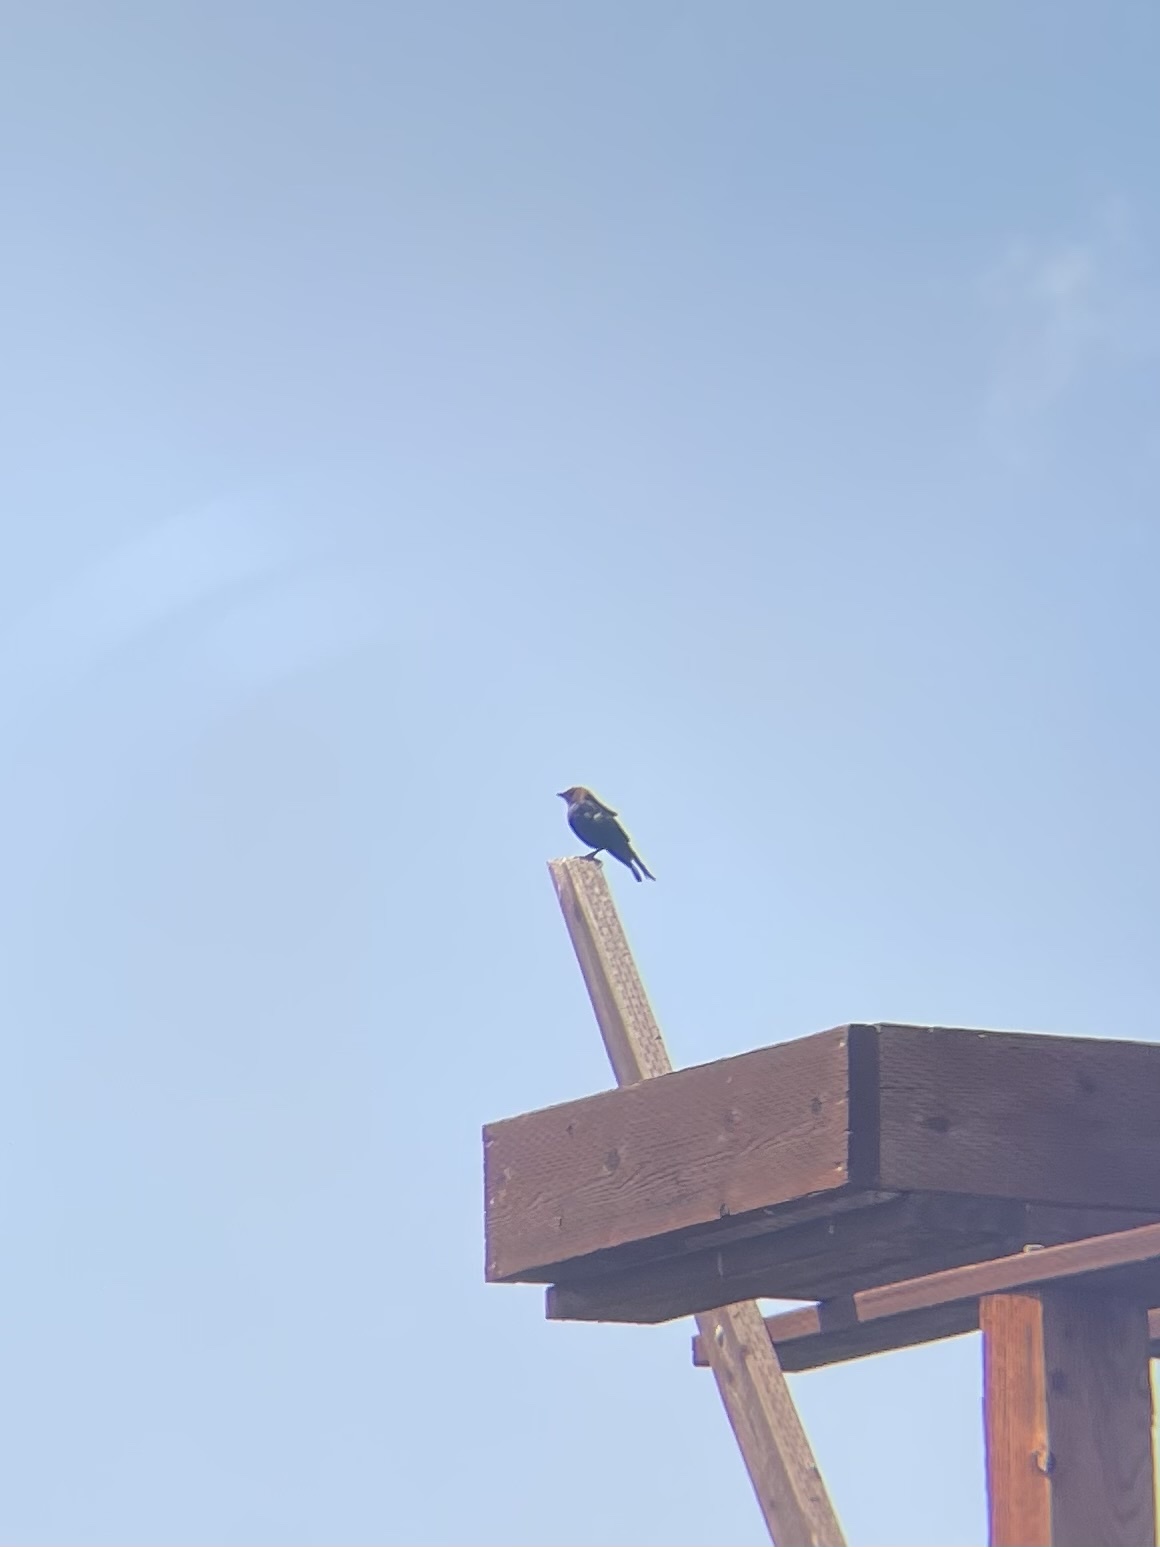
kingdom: Animalia
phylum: Chordata
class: Aves
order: Passeriformes
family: Icteridae
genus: Molothrus
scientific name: Molothrus ater
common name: Brown-headed cowbird
